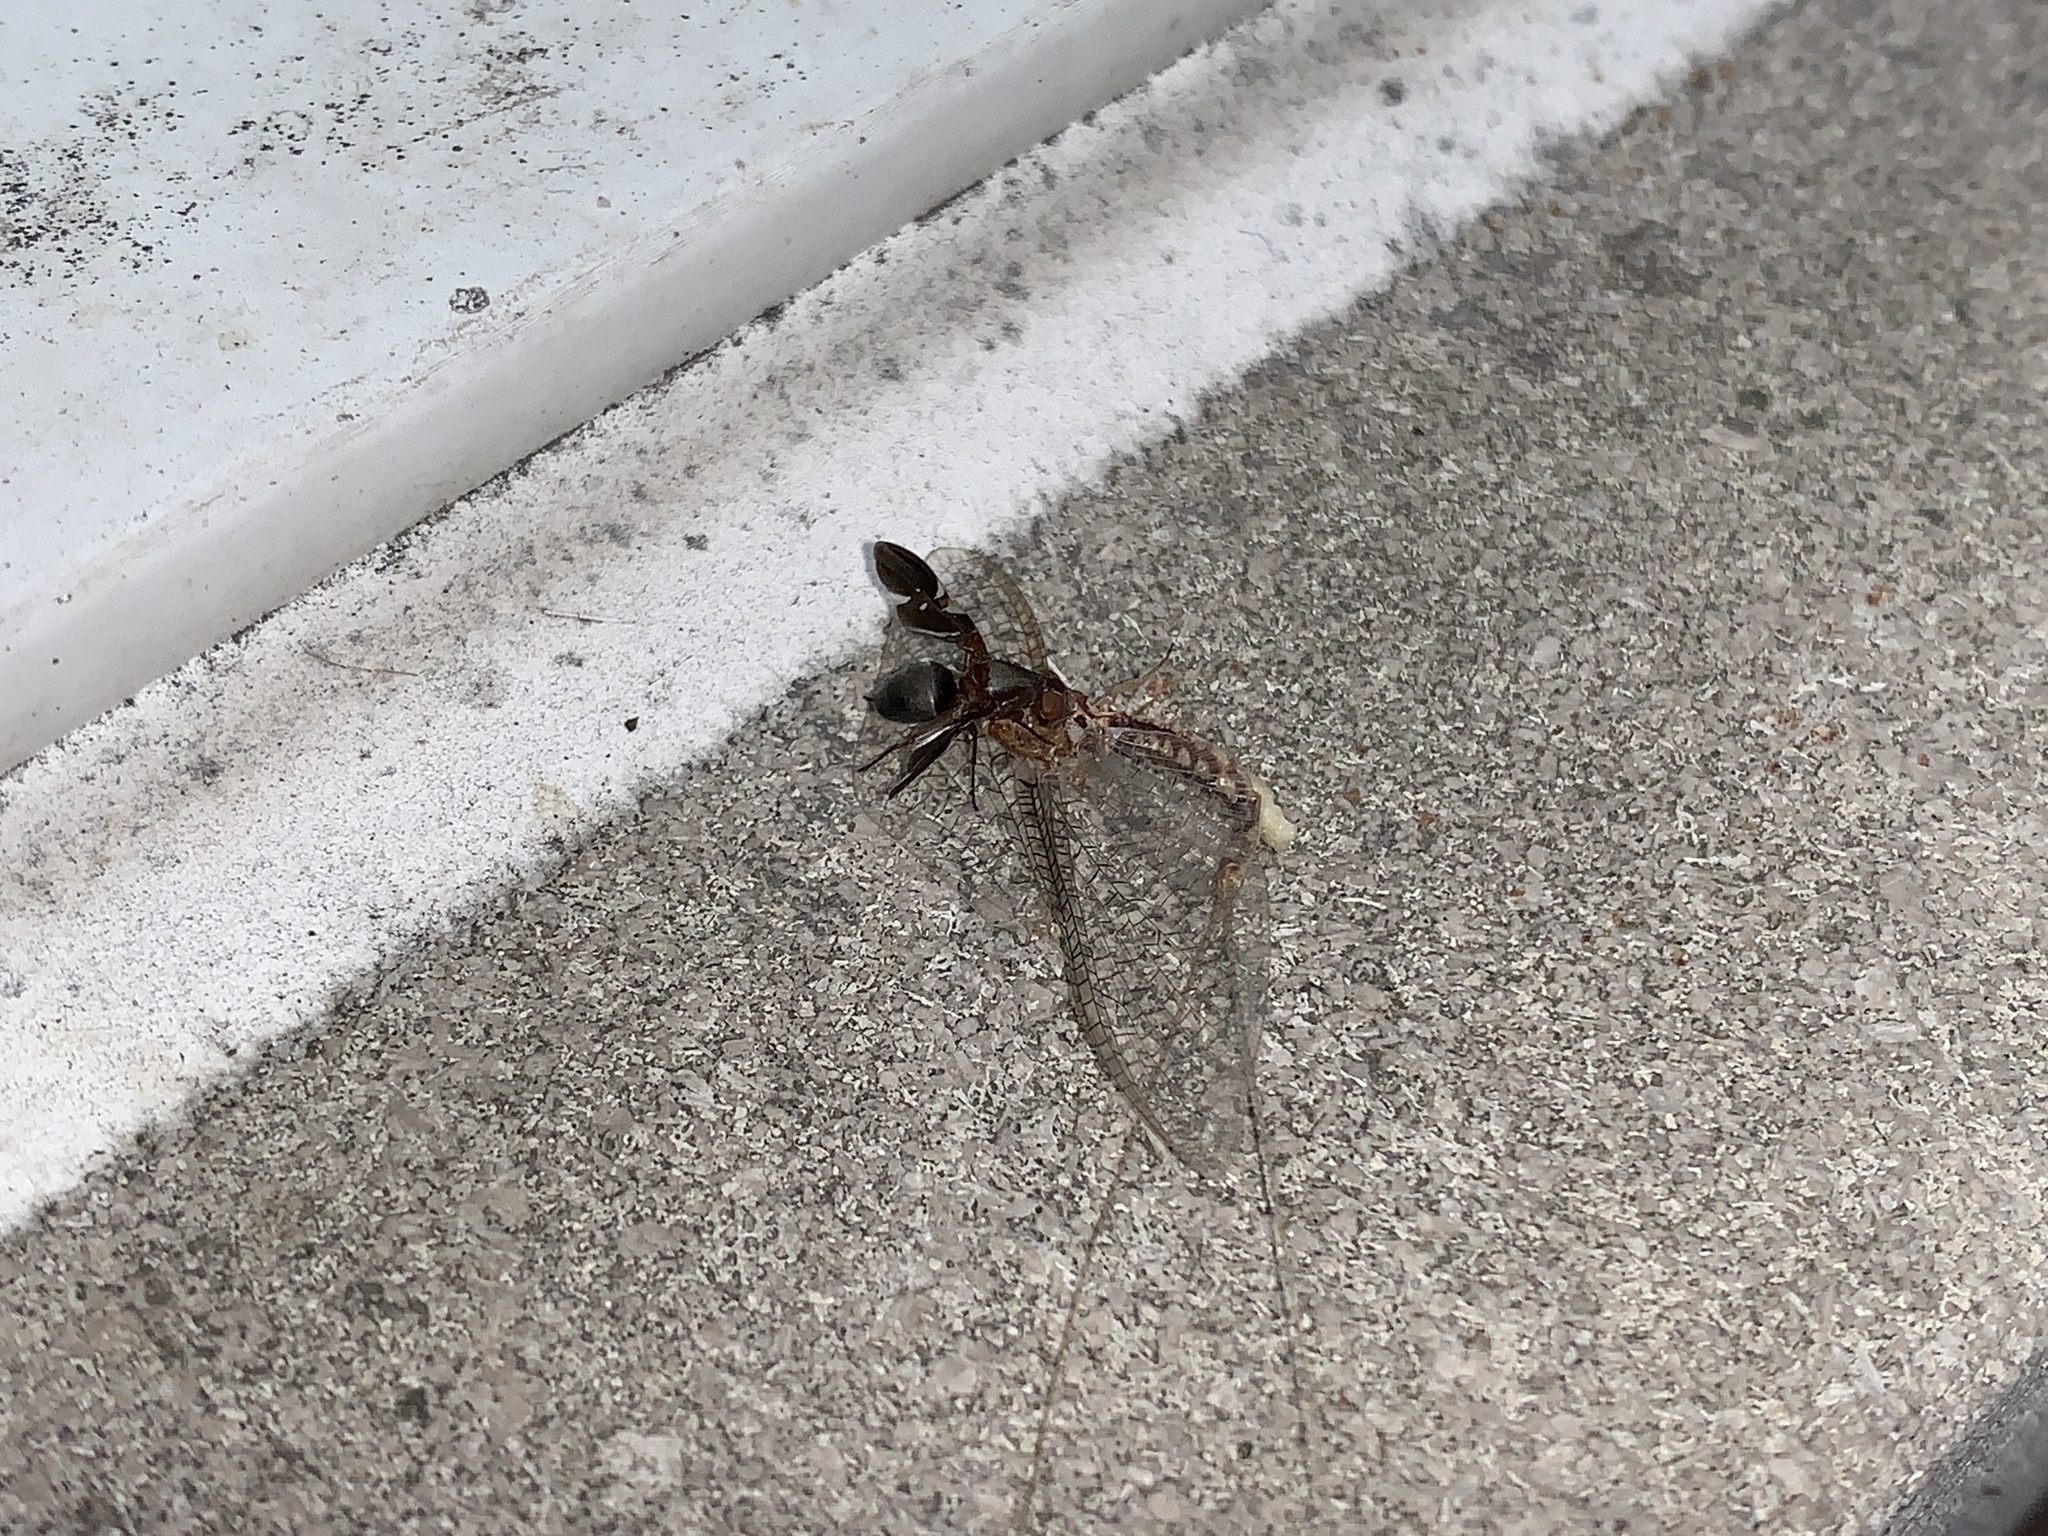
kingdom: Animalia
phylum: Arthropoda
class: Insecta
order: Diptera
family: Ulidiidae
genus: Delphinia
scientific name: Delphinia picta
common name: Common picture-winged fly
